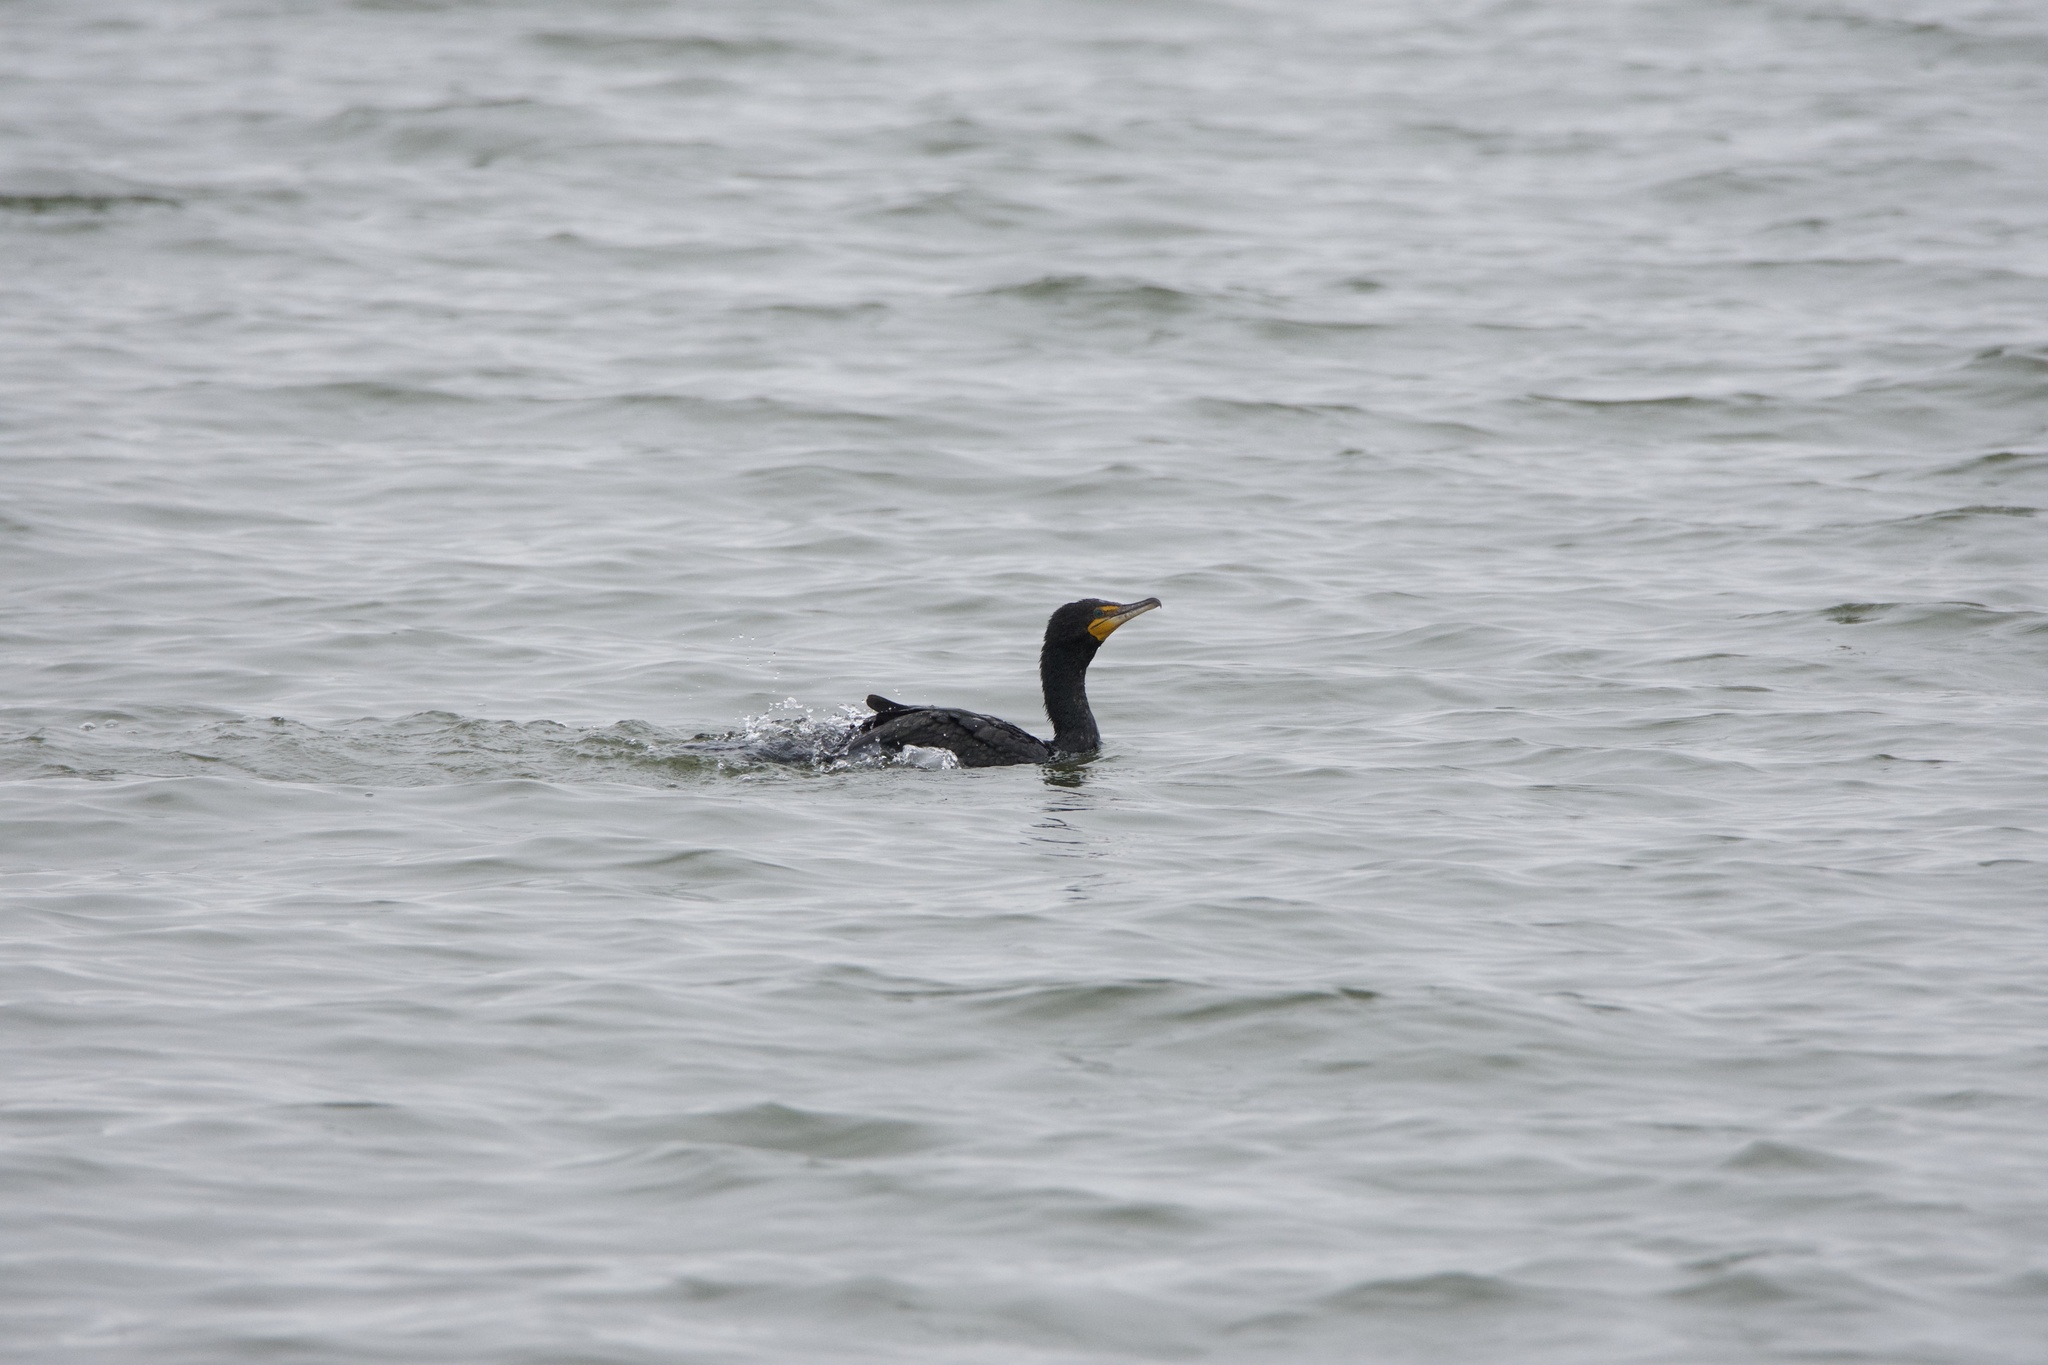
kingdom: Animalia
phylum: Chordata
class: Aves
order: Suliformes
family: Phalacrocoracidae
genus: Phalacrocorax
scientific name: Phalacrocorax auritus
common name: Double-crested cormorant
